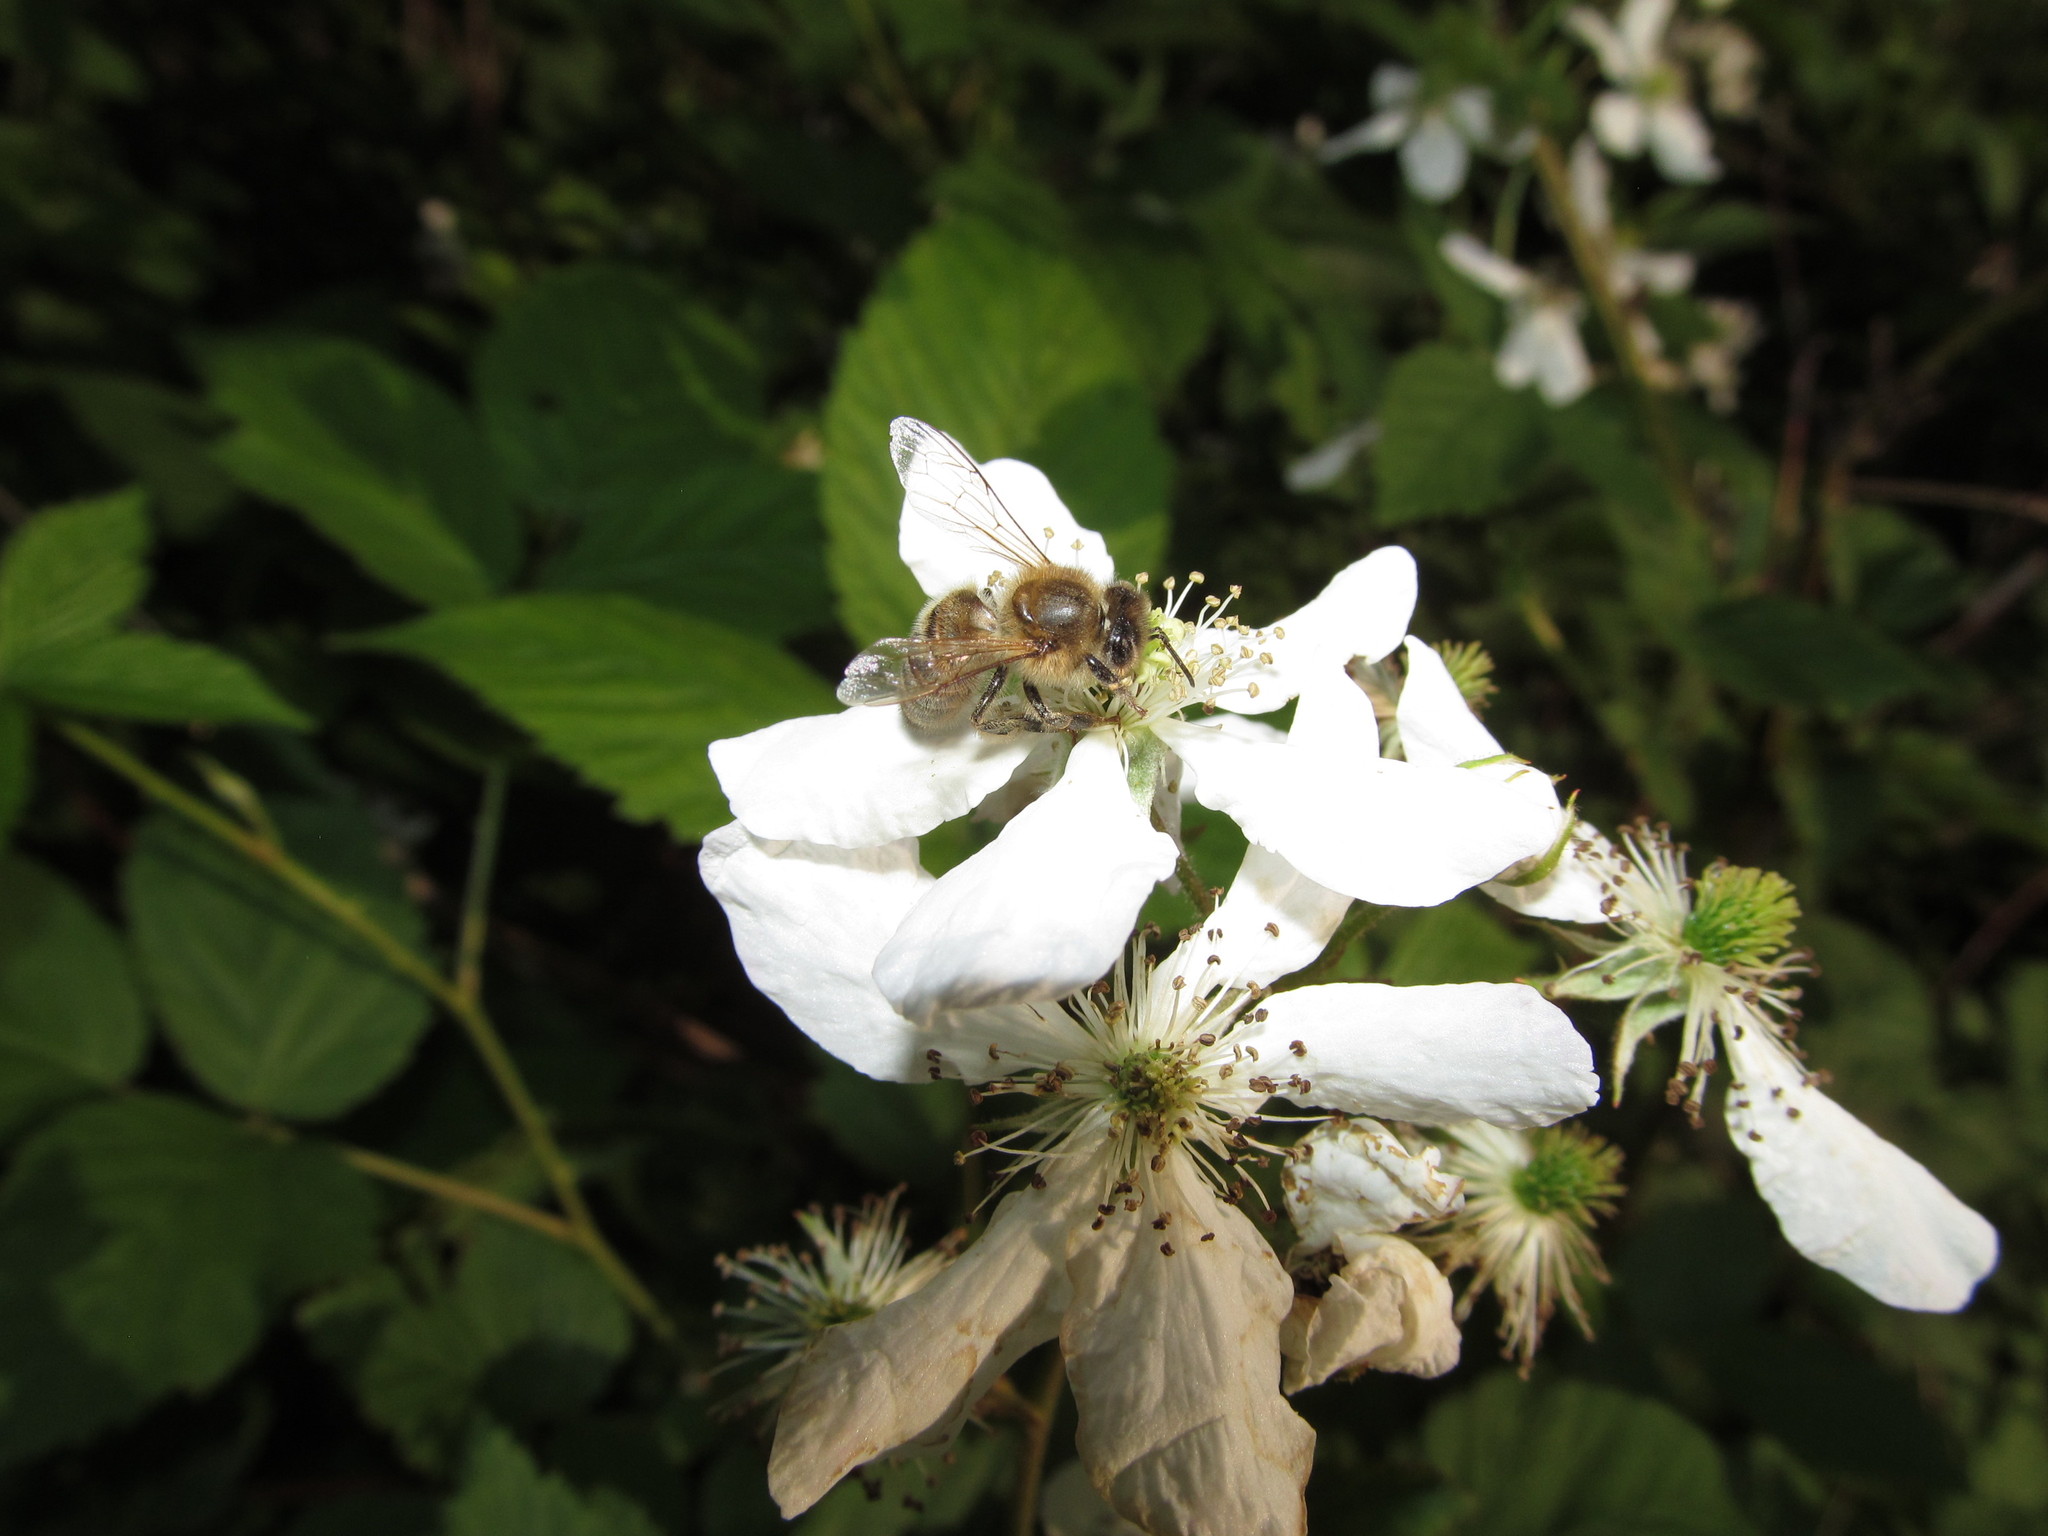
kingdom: Animalia
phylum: Arthropoda
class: Insecta
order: Hymenoptera
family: Apidae
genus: Apis
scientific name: Apis mellifera
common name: Honey bee
